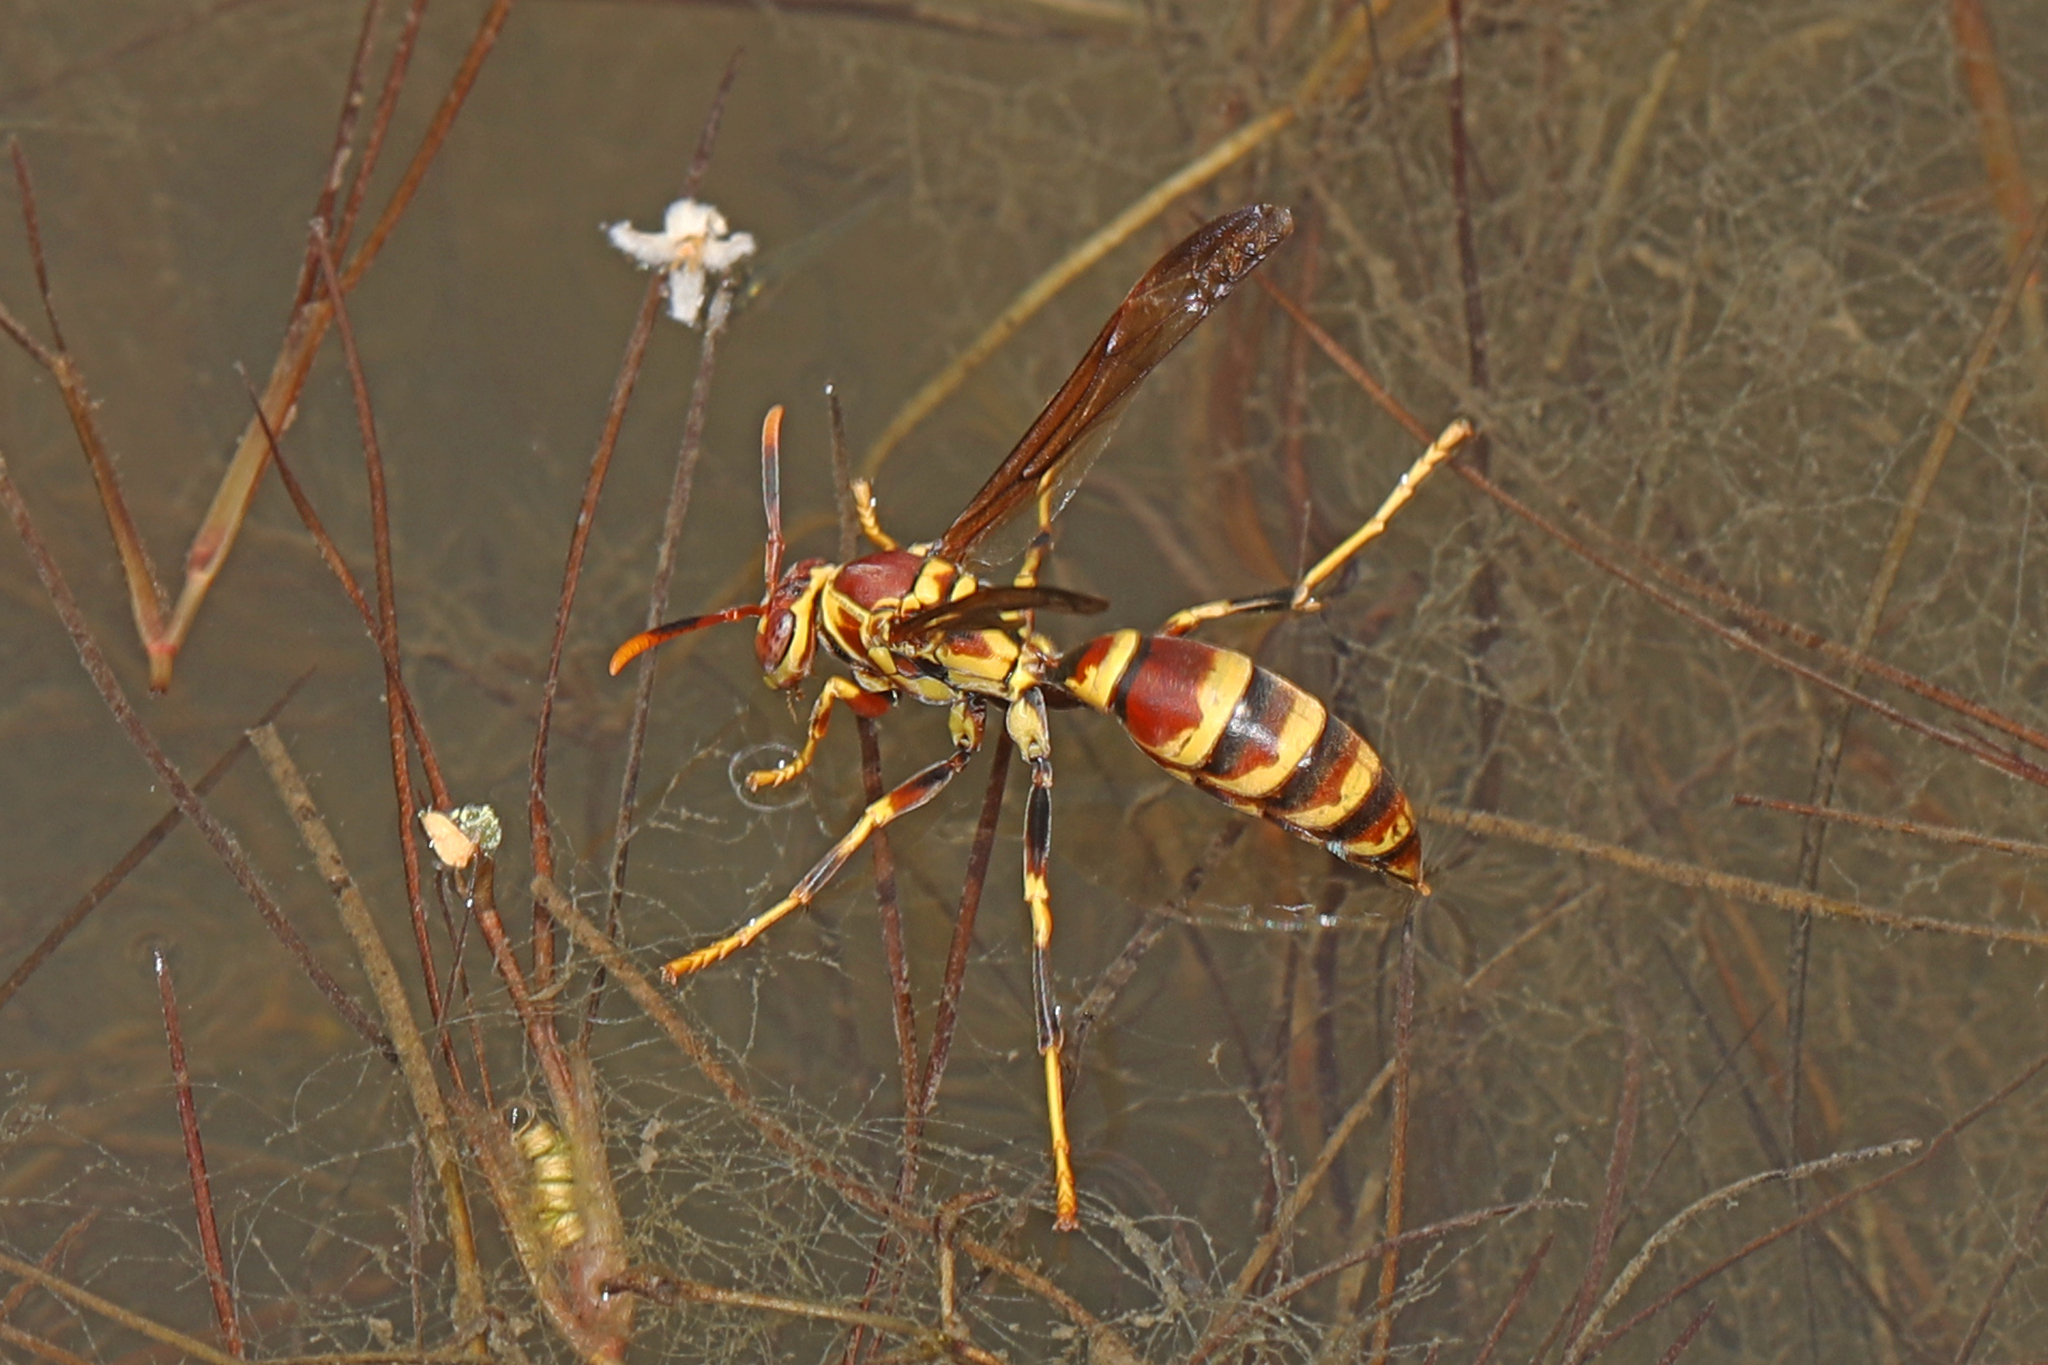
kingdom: Animalia
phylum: Arthropoda
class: Insecta
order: Hymenoptera
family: Eumenidae
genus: Polistes
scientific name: Polistes exclamans
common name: Paper wasp
